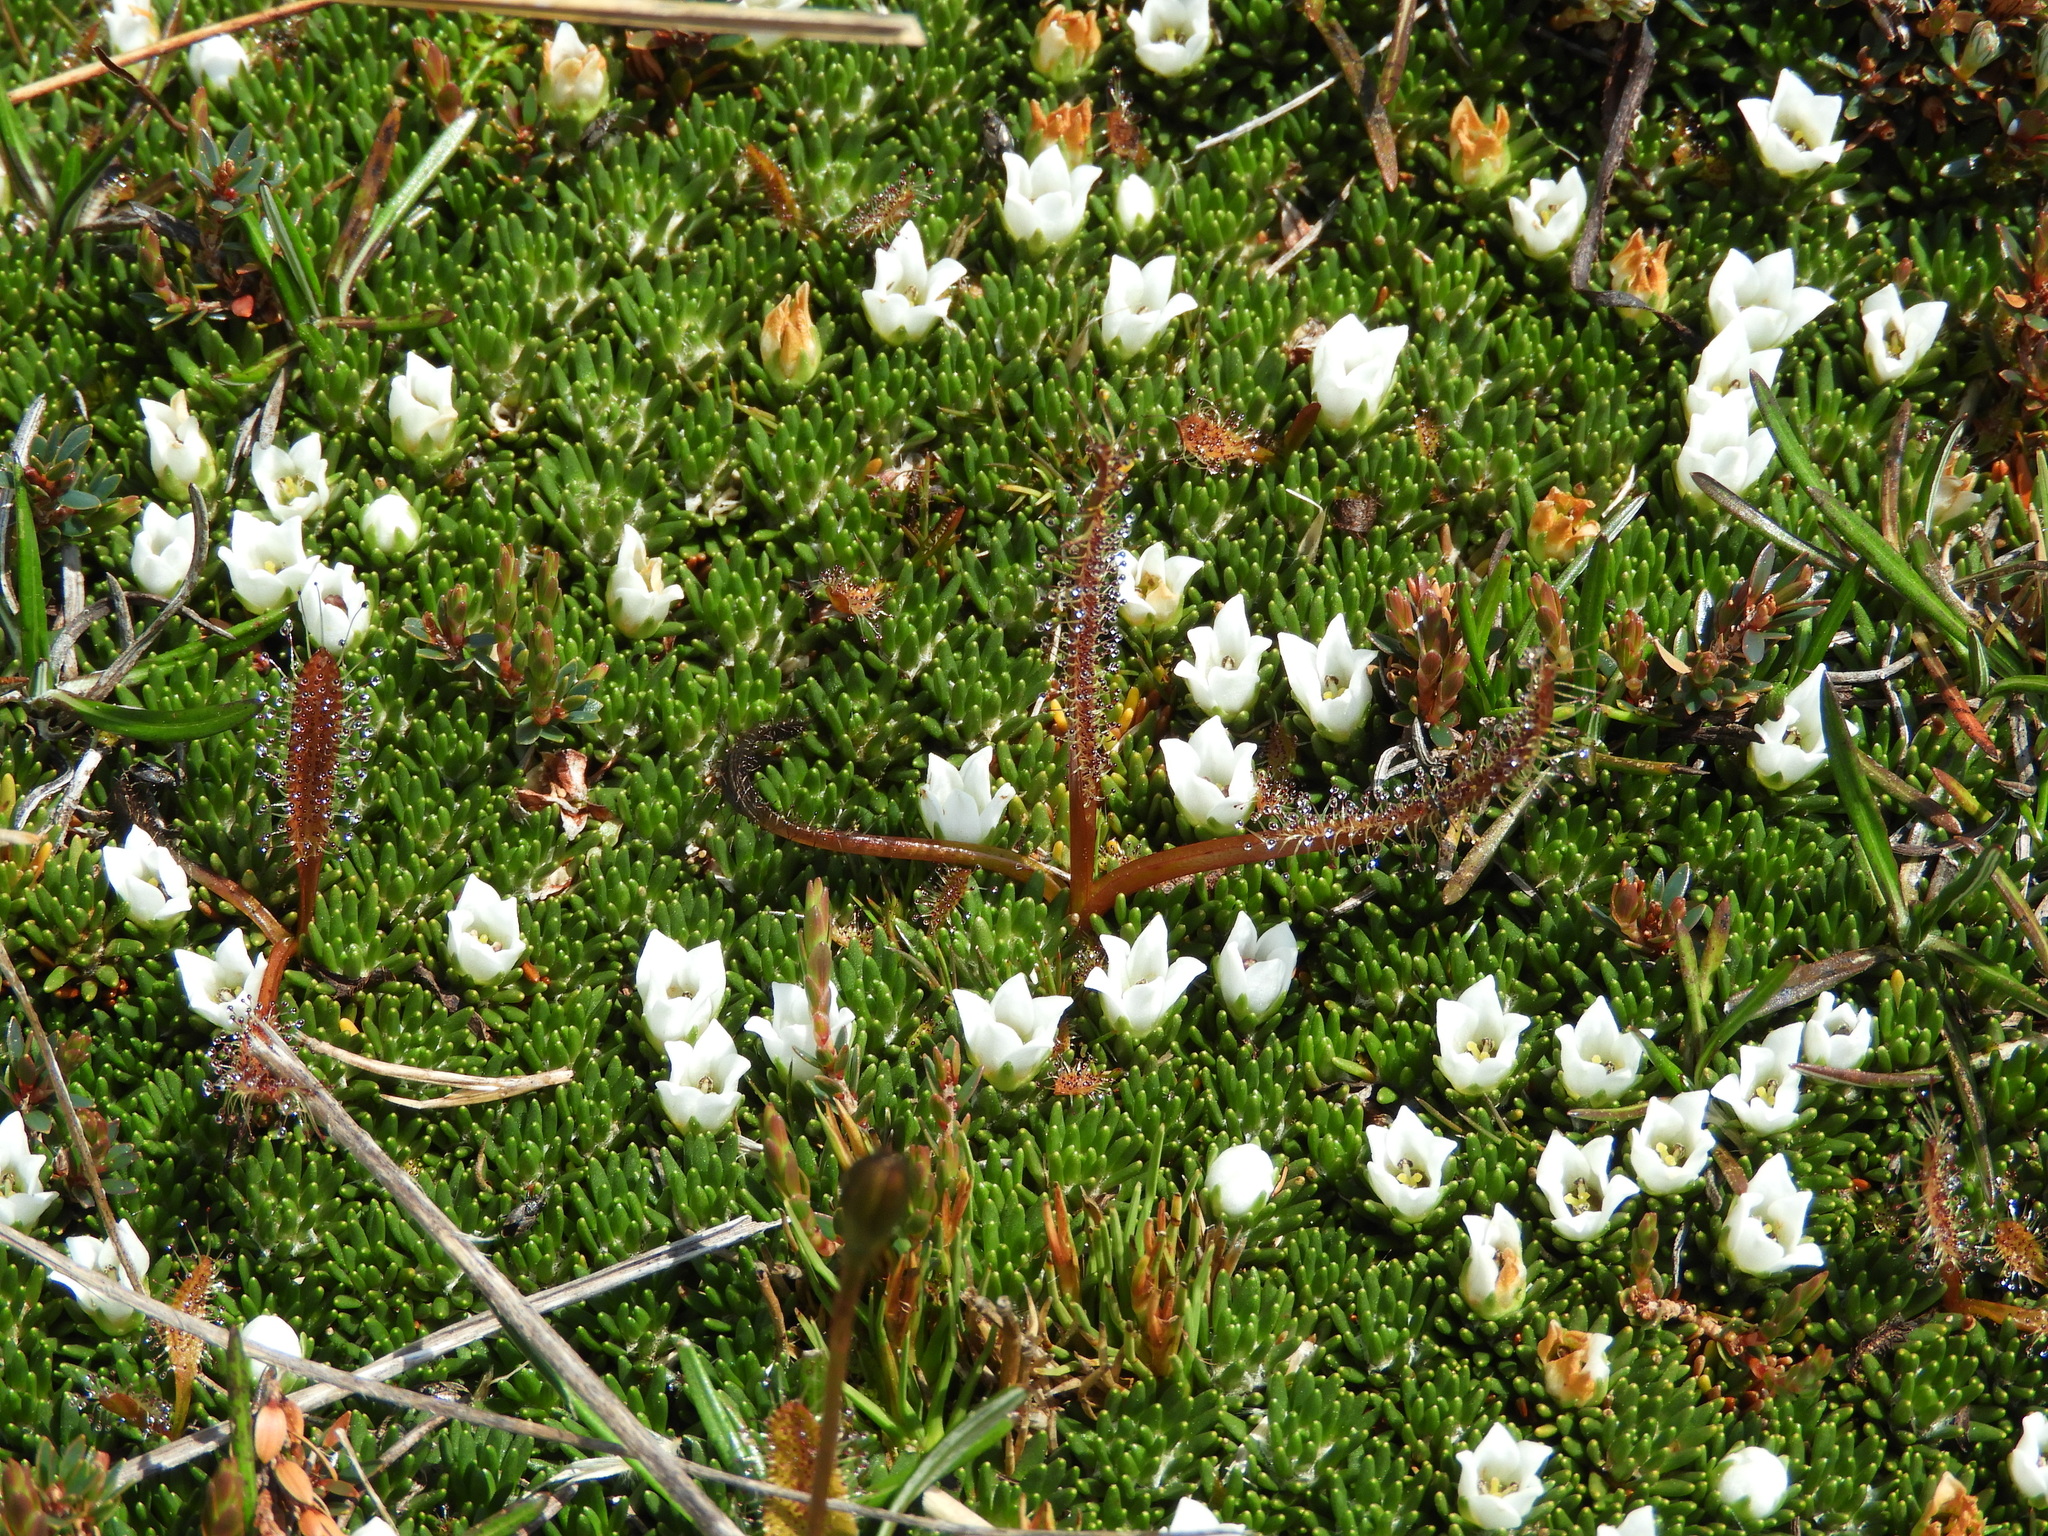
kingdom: Plantae
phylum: Tracheophyta
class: Magnoliopsida
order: Asterales
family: Stylidiaceae
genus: Donatia
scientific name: Donatia novae-zelandiae
